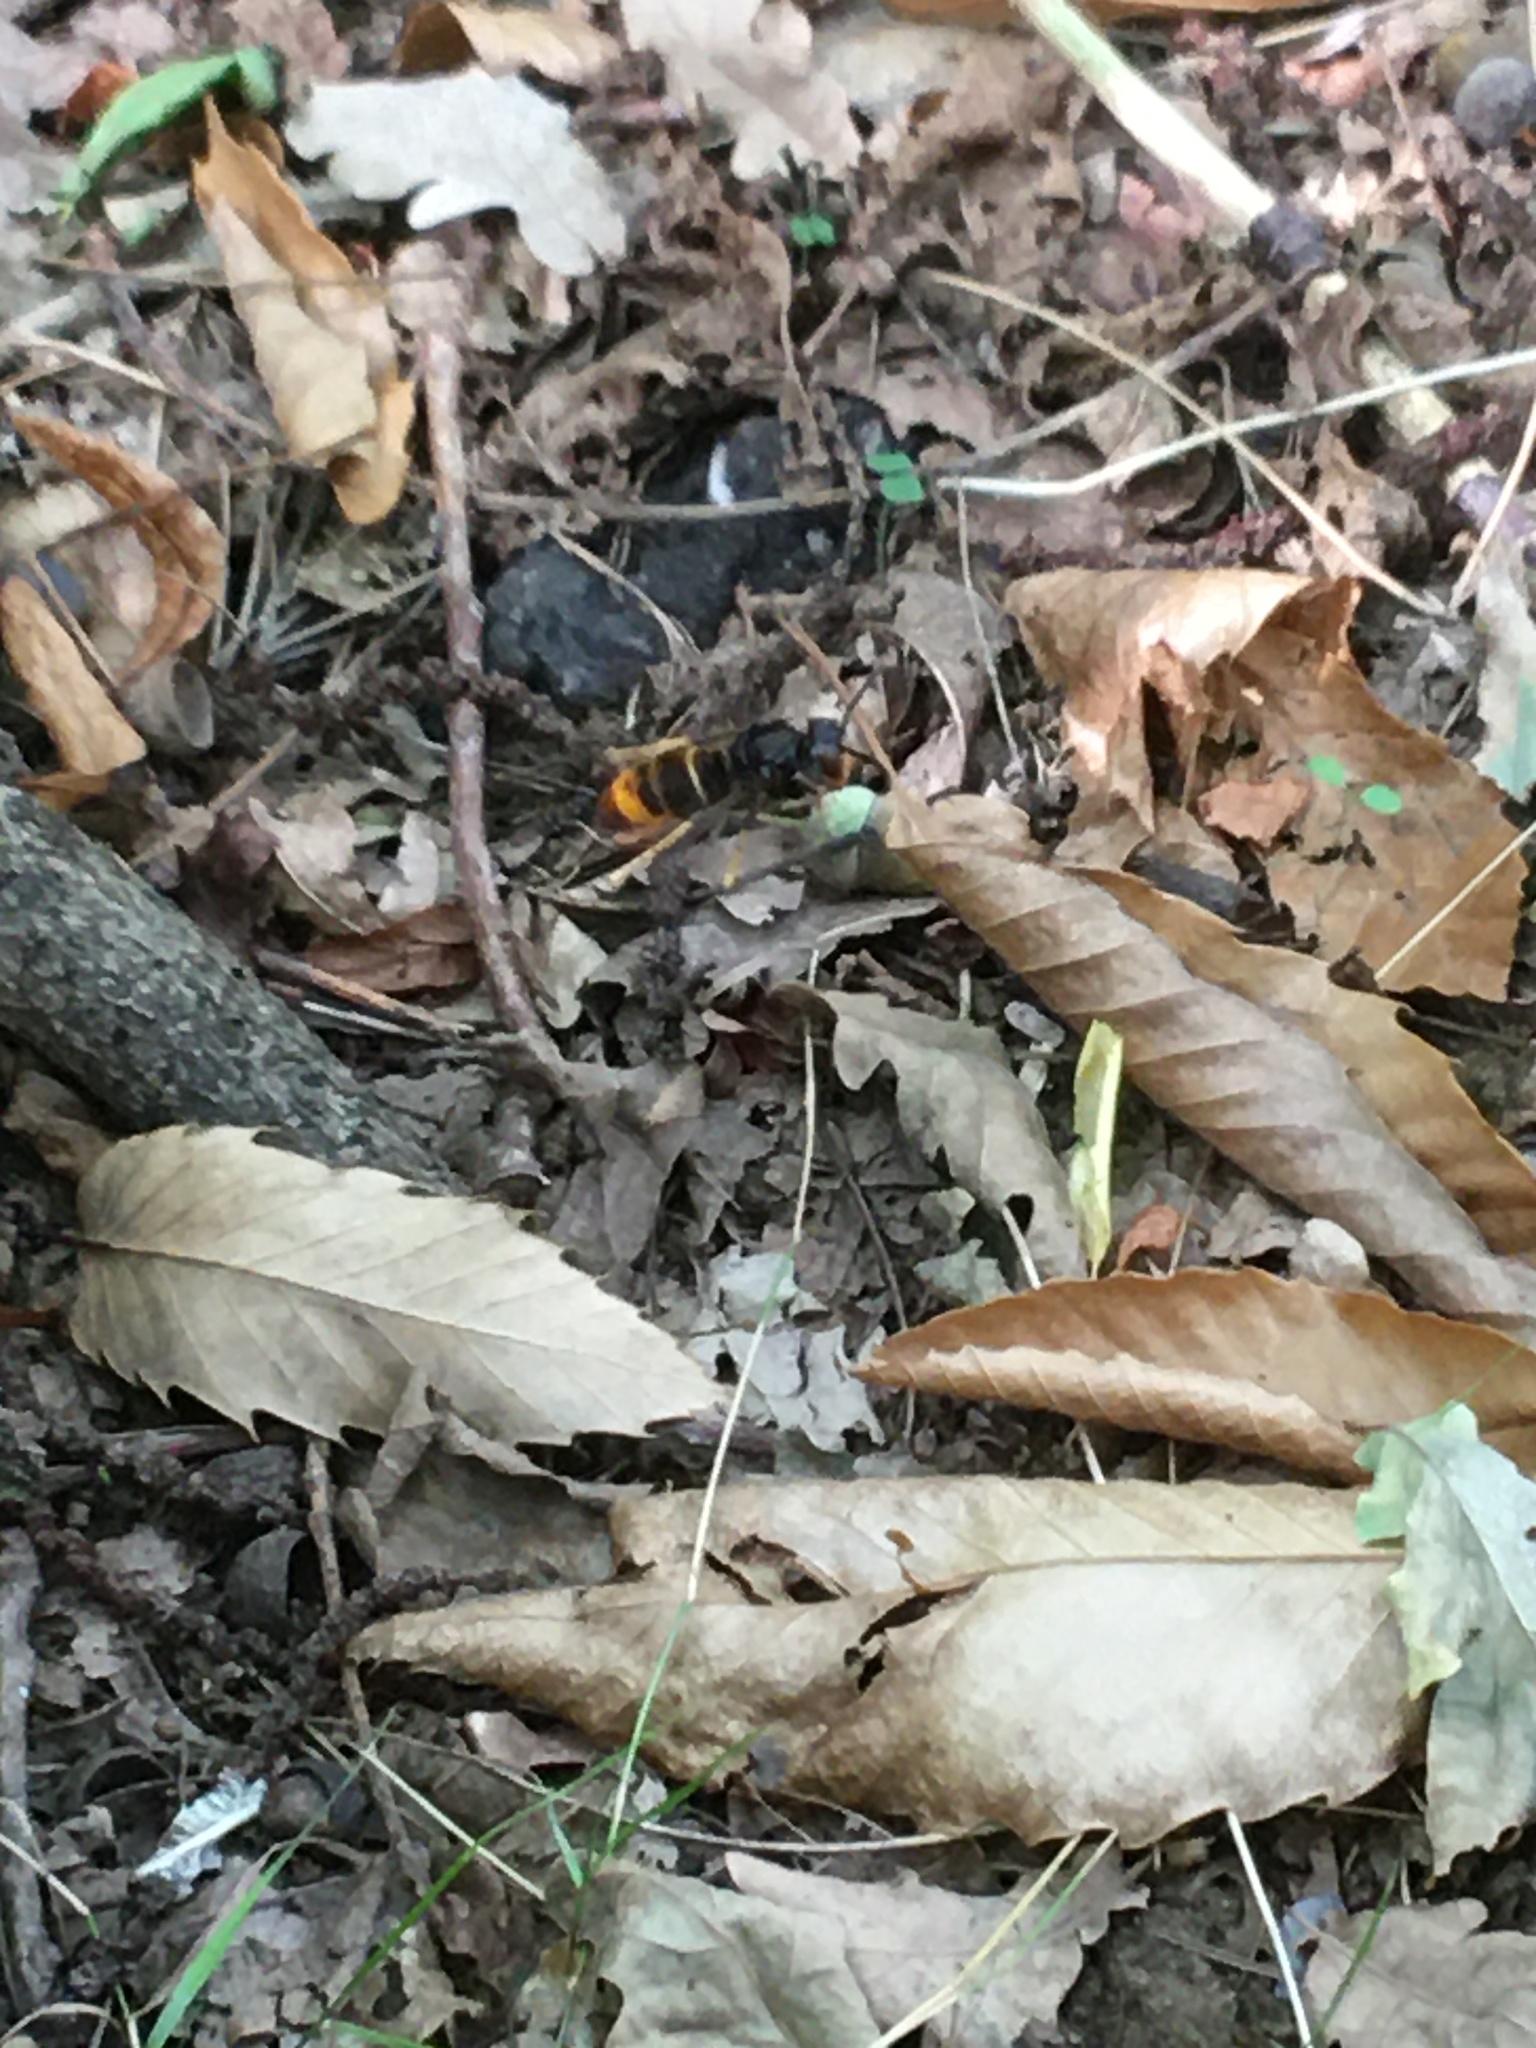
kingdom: Animalia
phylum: Arthropoda
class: Insecta
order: Hymenoptera
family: Vespidae
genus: Vespa
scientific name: Vespa velutina
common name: Asian hornet
